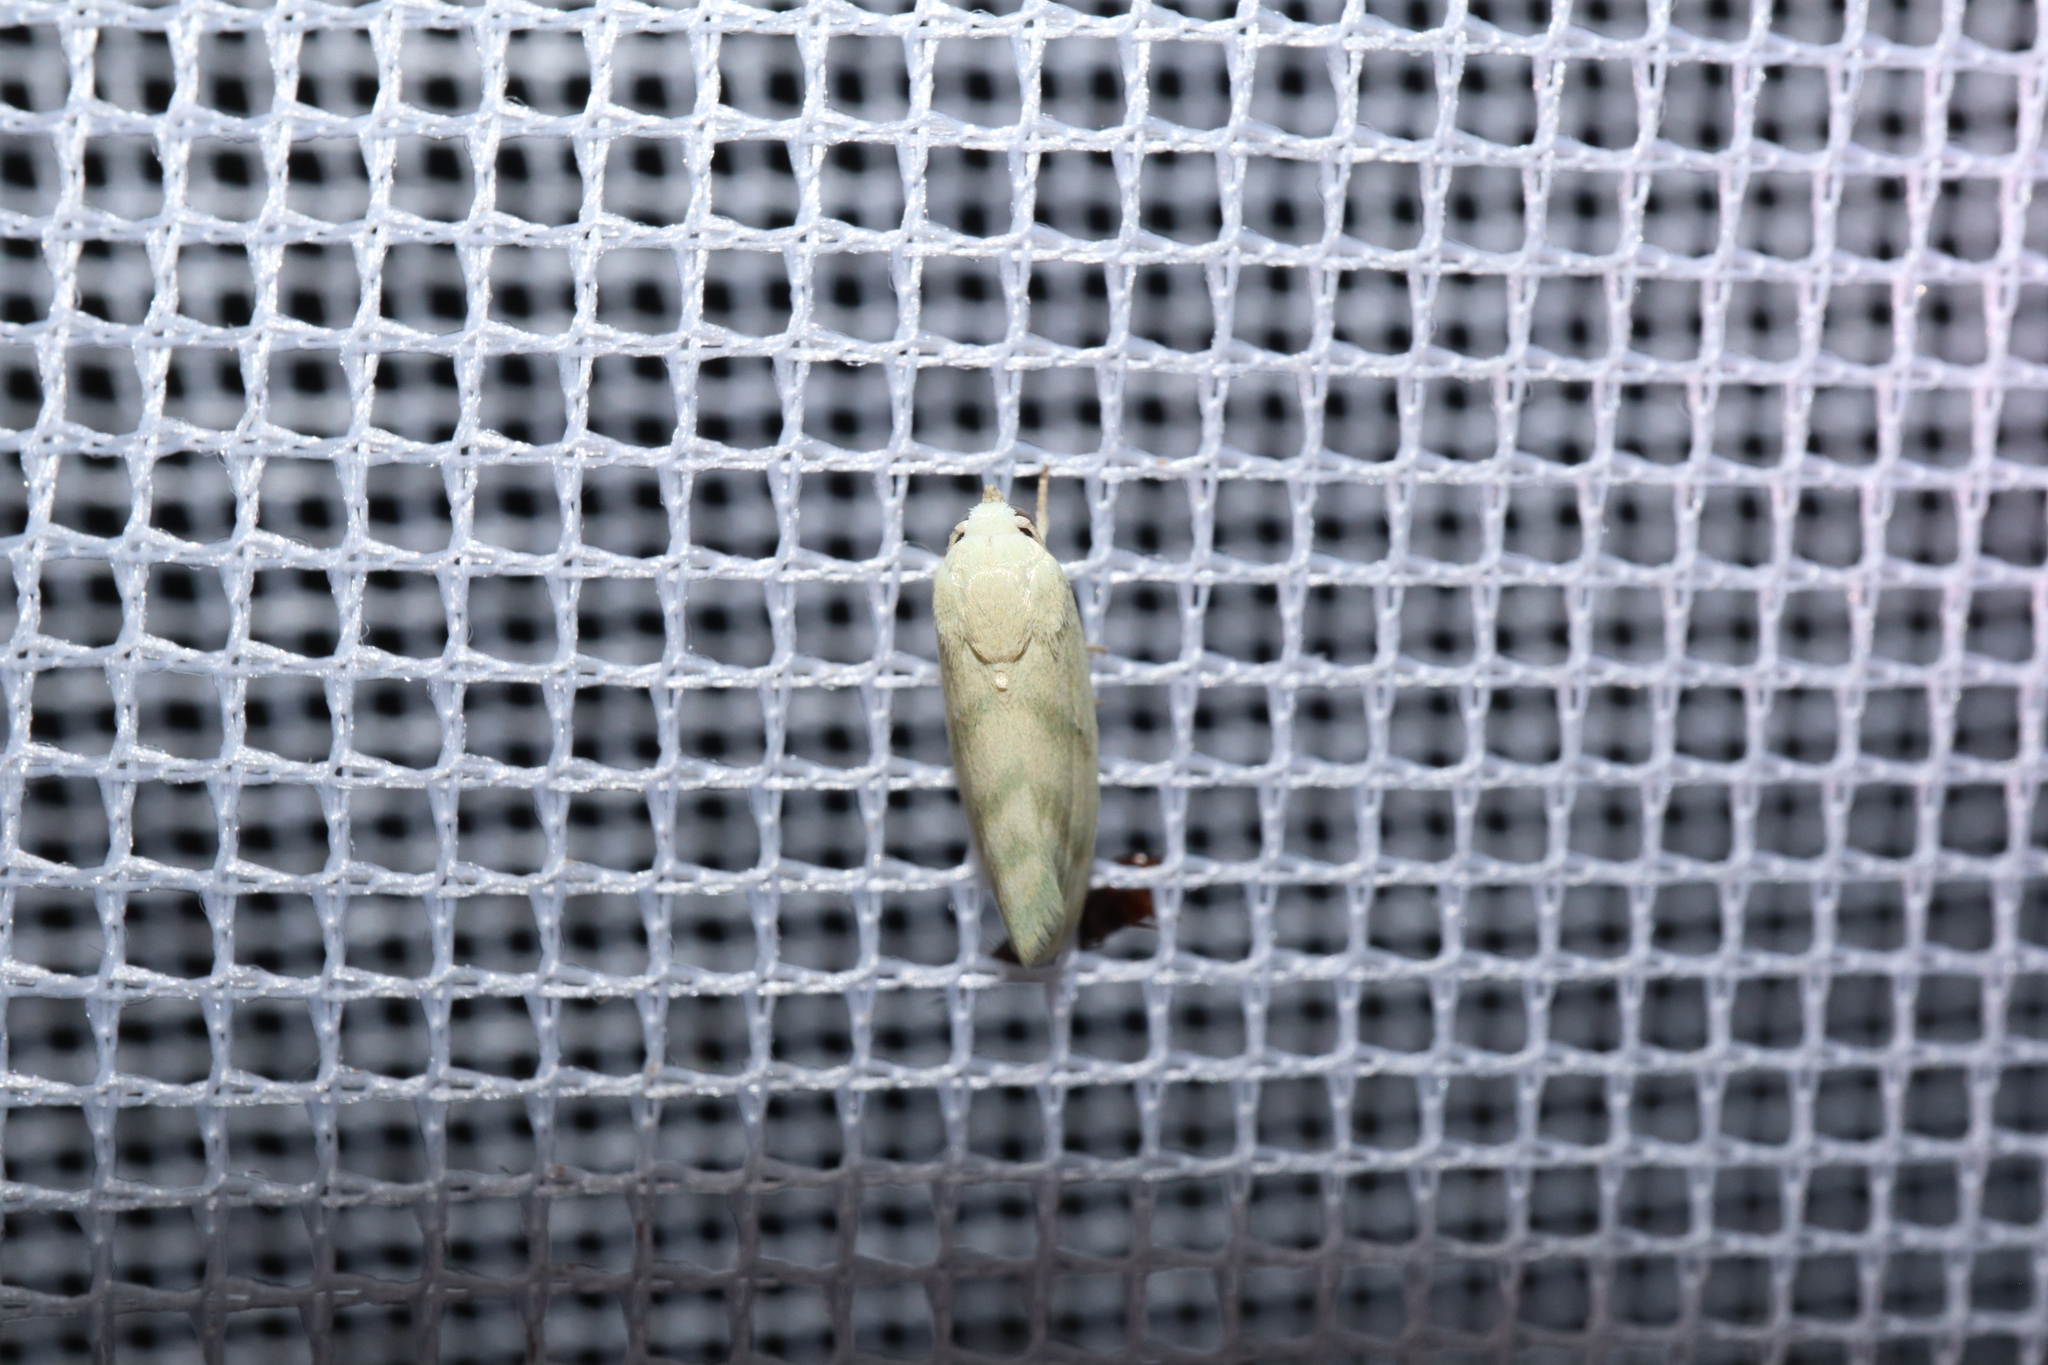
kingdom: Animalia
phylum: Arthropoda
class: Insecta
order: Lepidoptera
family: Nolidae
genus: Earias
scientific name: Earias paralella
